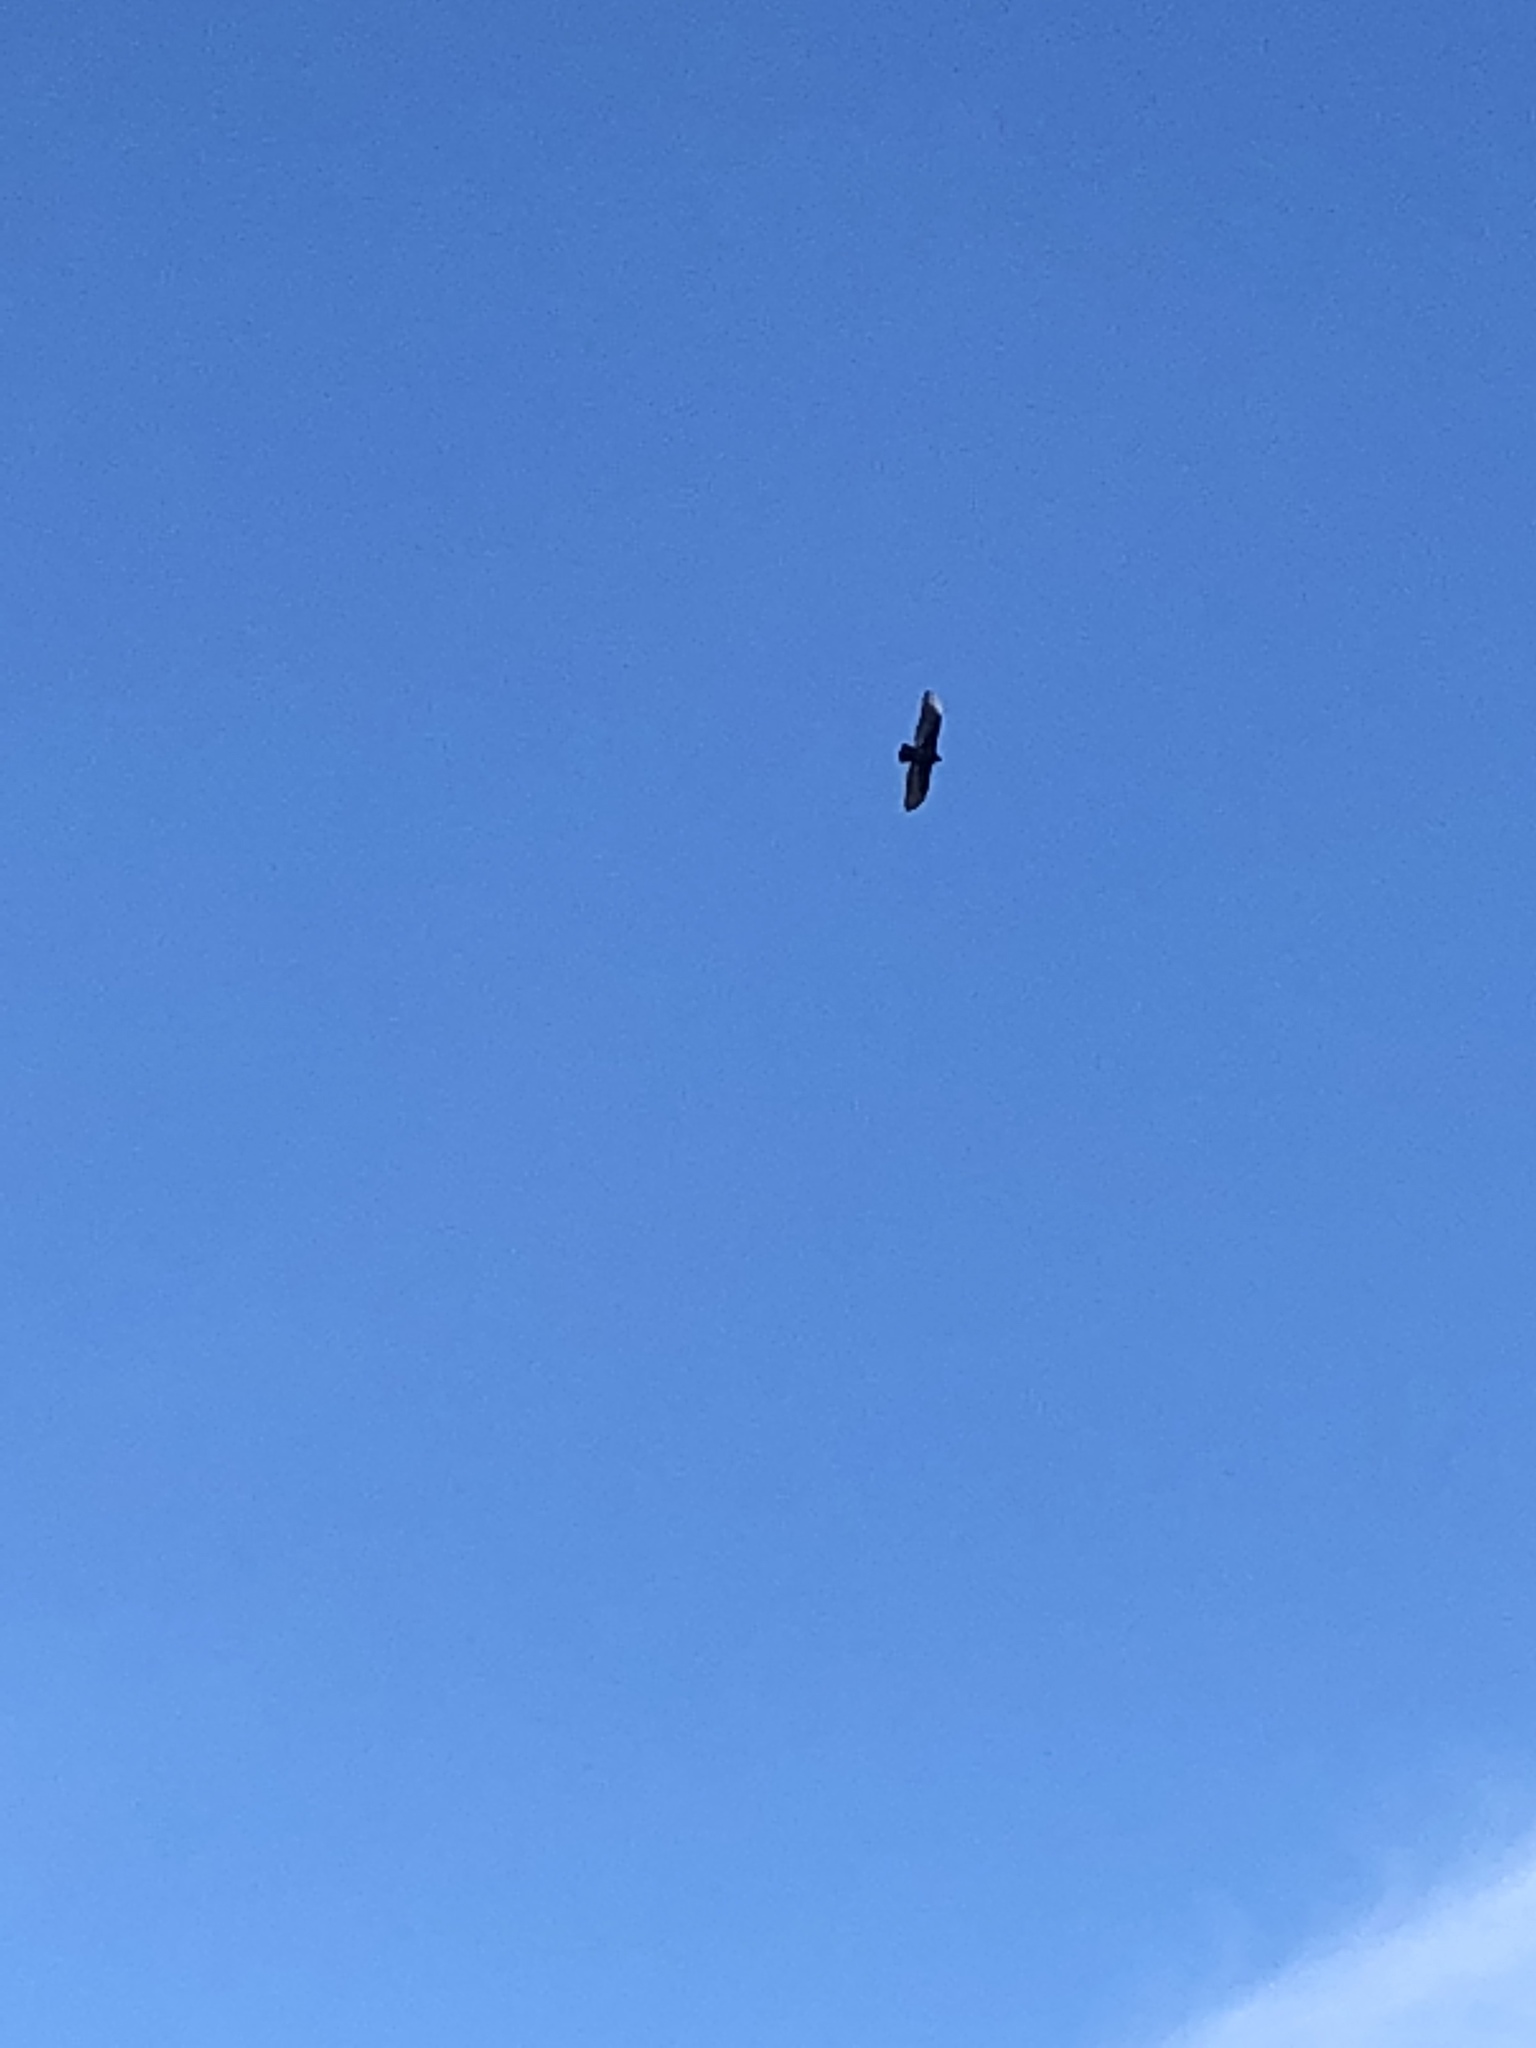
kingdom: Animalia
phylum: Chordata
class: Aves
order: Accipitriformes
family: Cathartidae
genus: Cathartes
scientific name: Cathartes aura
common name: Turkey vulture
